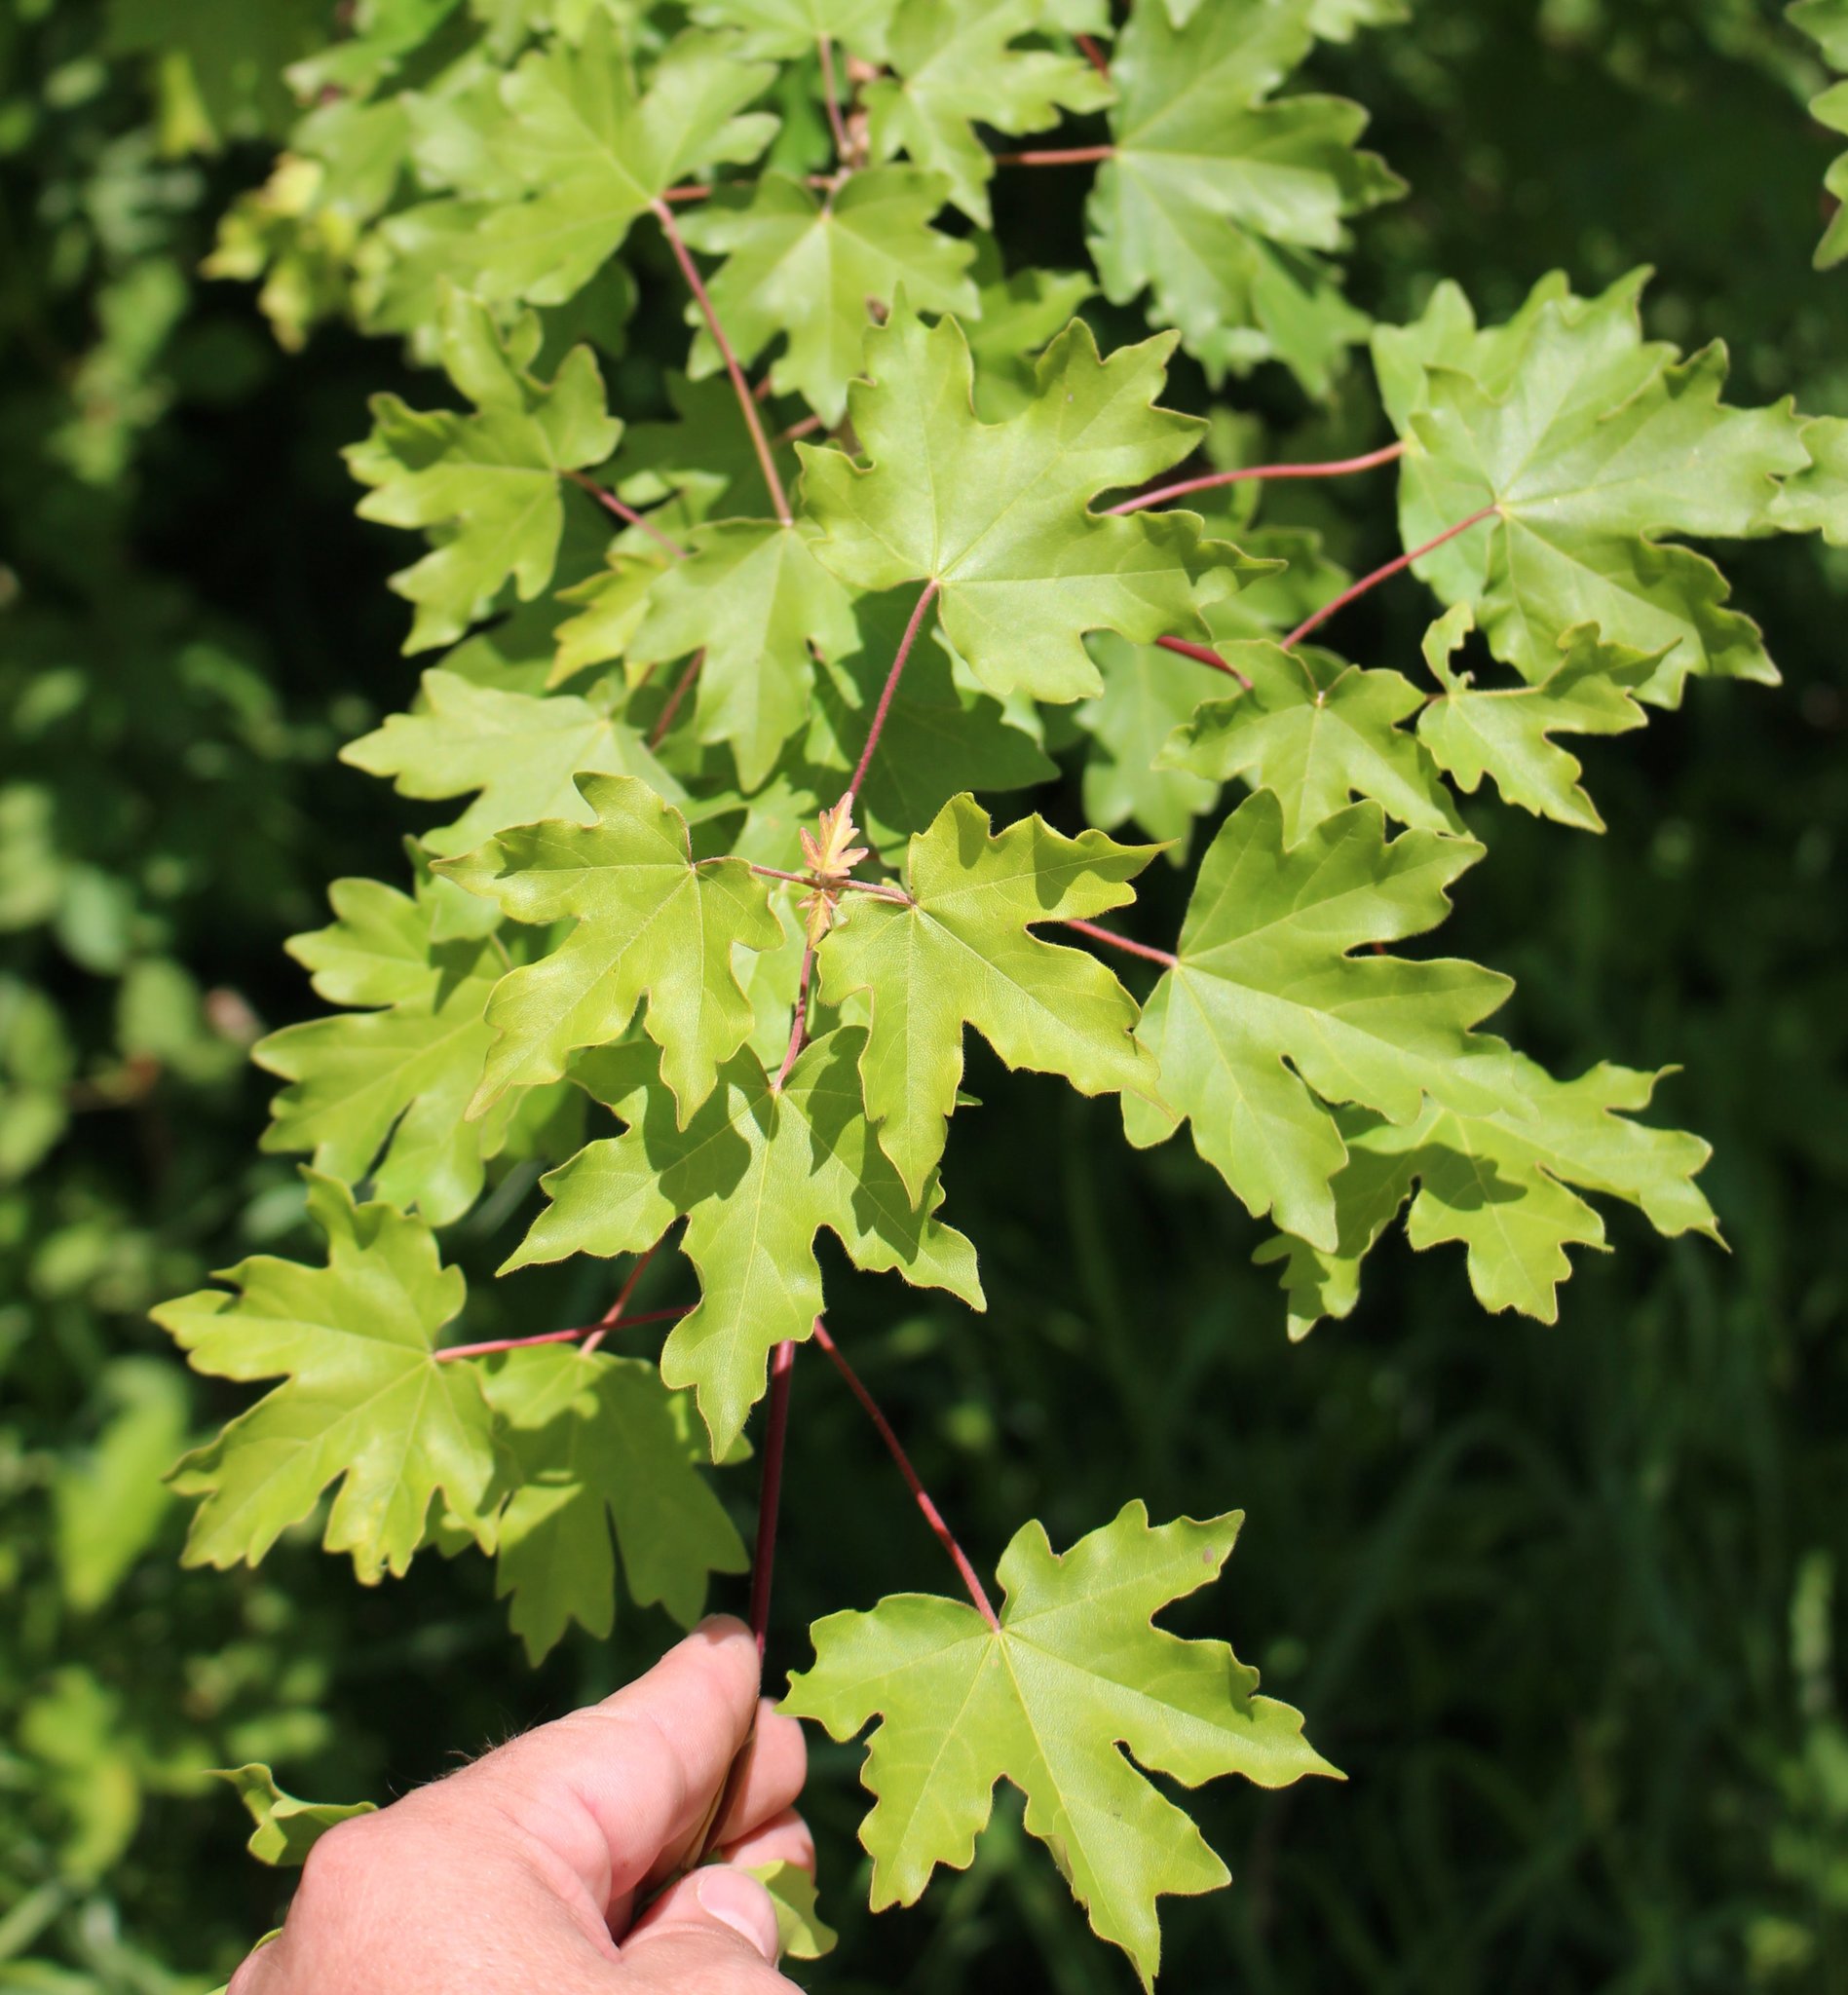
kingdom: Plantae
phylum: Tracheophyta
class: Magnoliopsida
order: Sapindales
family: Sapindaceae
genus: Acer
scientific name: Acer campestre
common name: Field maple
